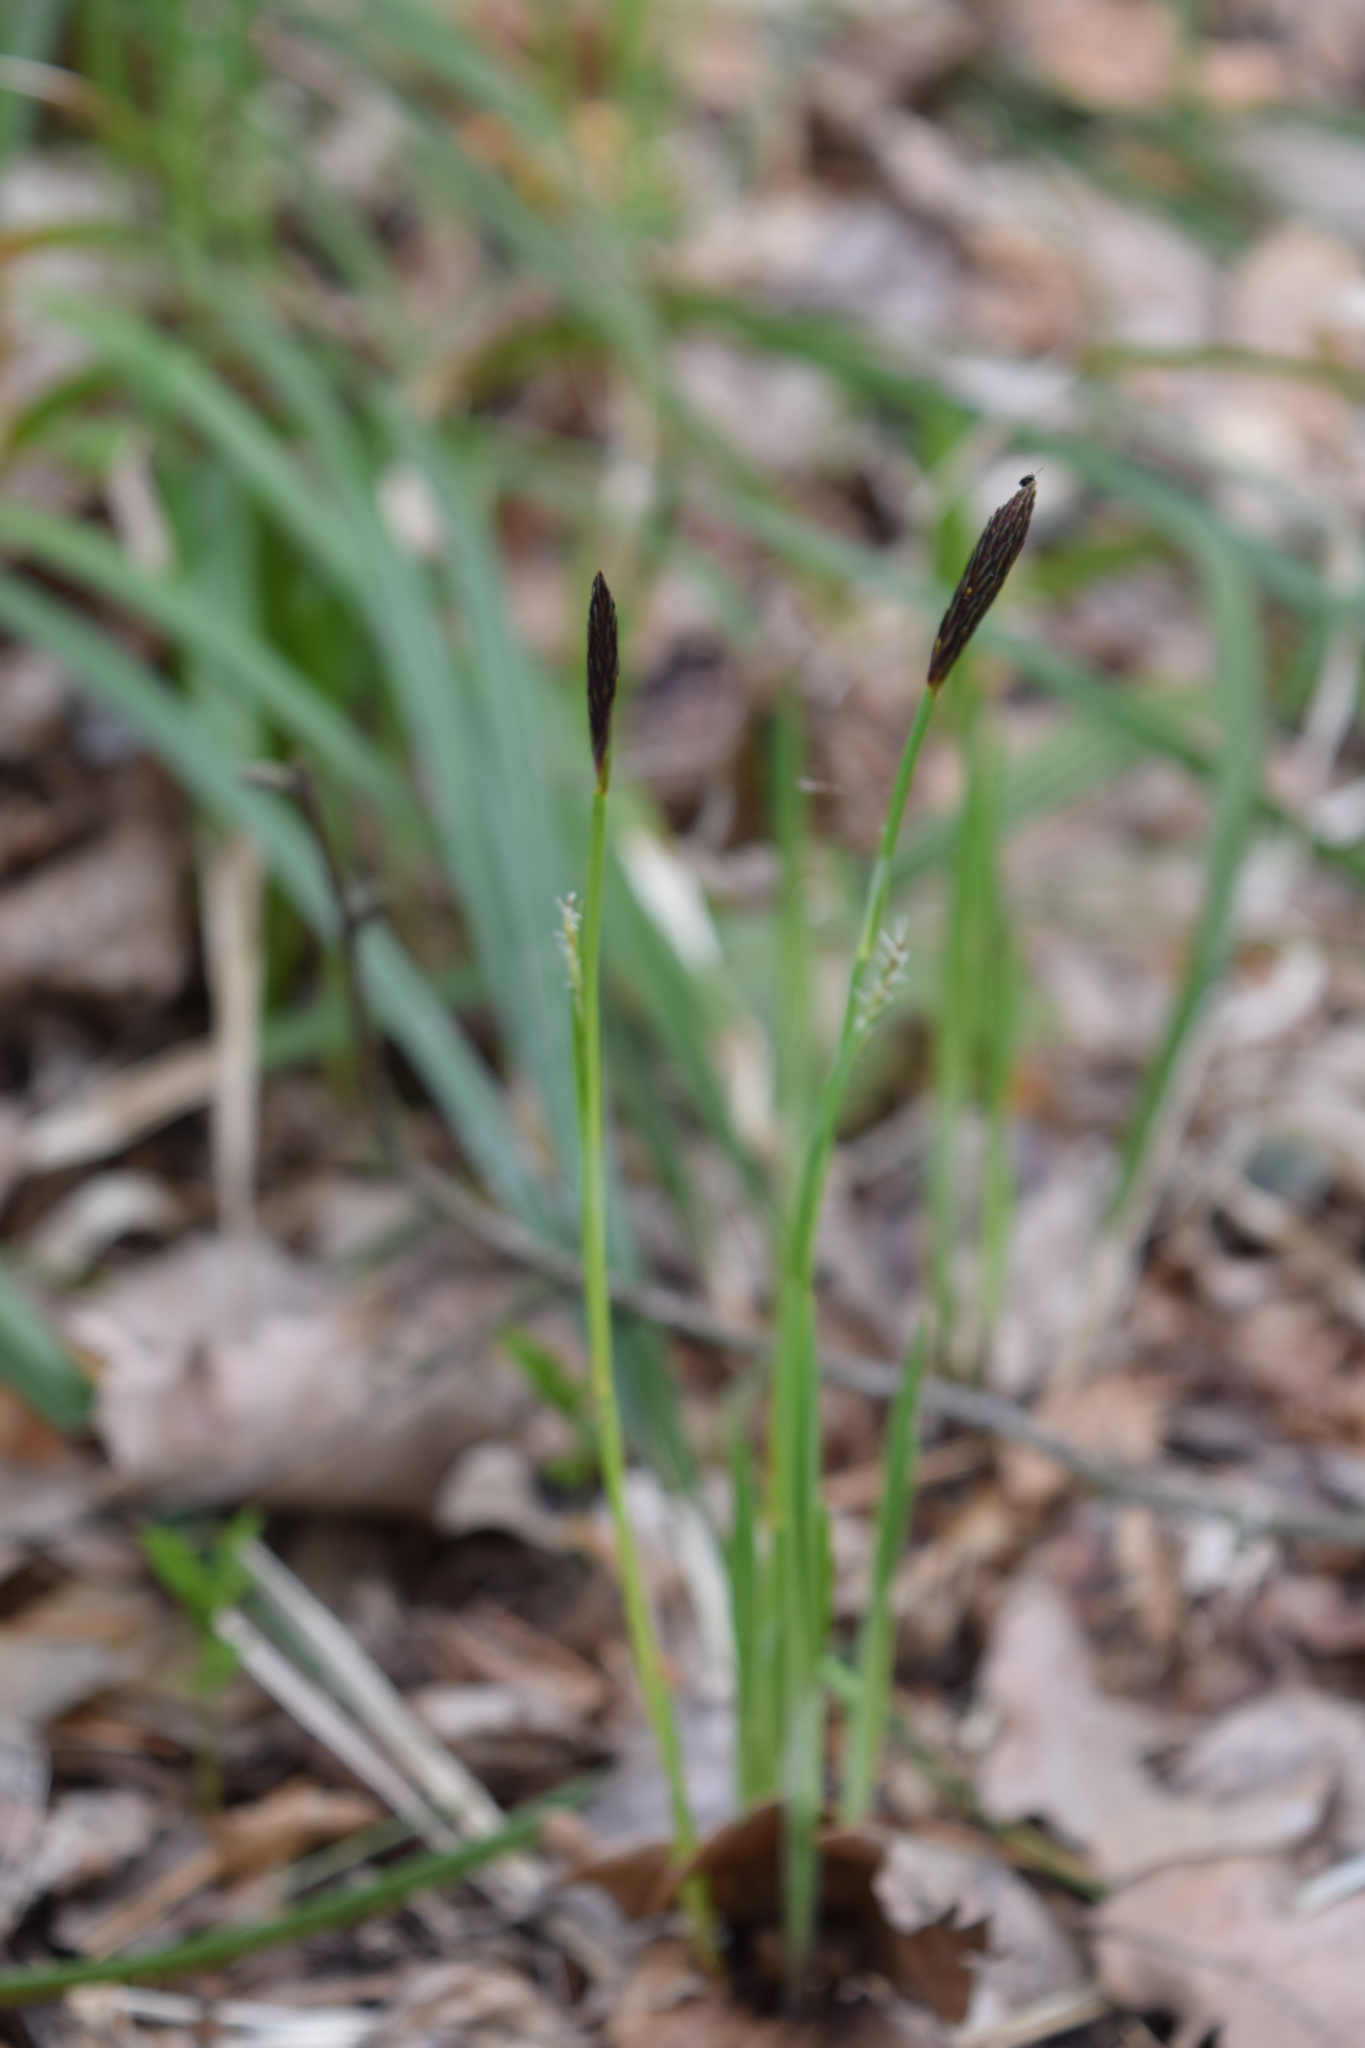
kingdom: Plantae
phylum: Tracheophyta
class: Liliopsida
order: Poales
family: Cyperaceae
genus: Carex
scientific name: Carex pilosa
